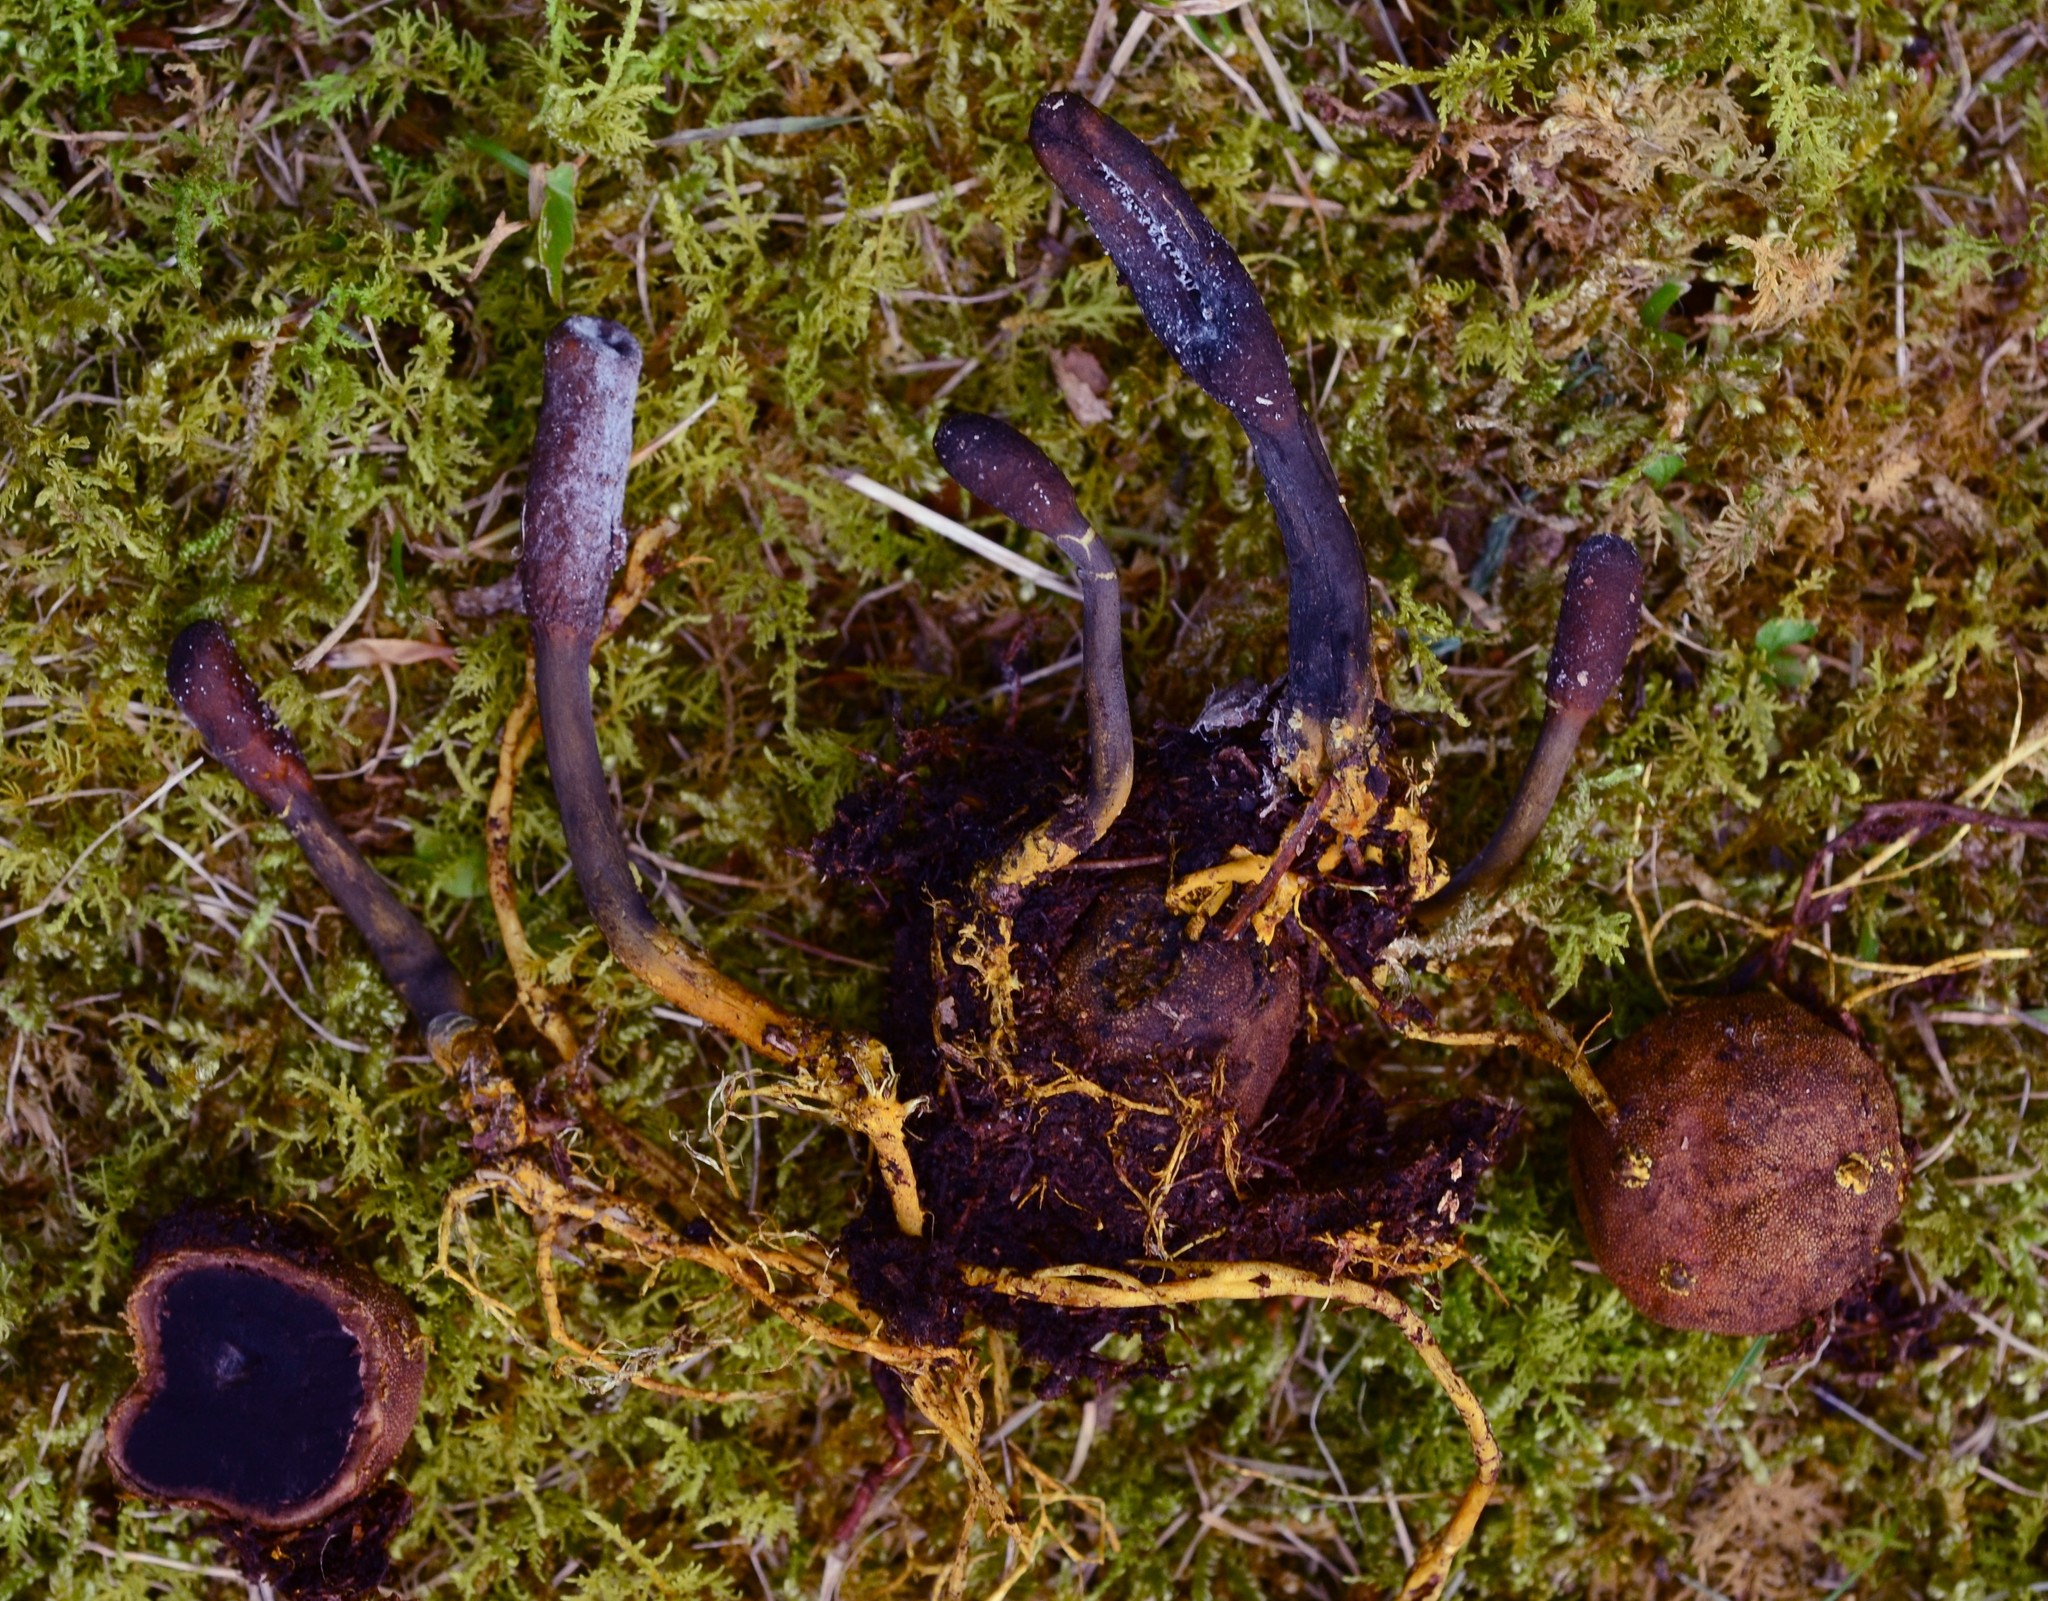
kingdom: Fungi
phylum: Ascomycota
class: Sordariomycetes
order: Hypocreales
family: Ophiocordycipitaceae
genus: Tolypocladium
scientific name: Tolypocladium ophioglossoides
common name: Snaketongue truffleclub
